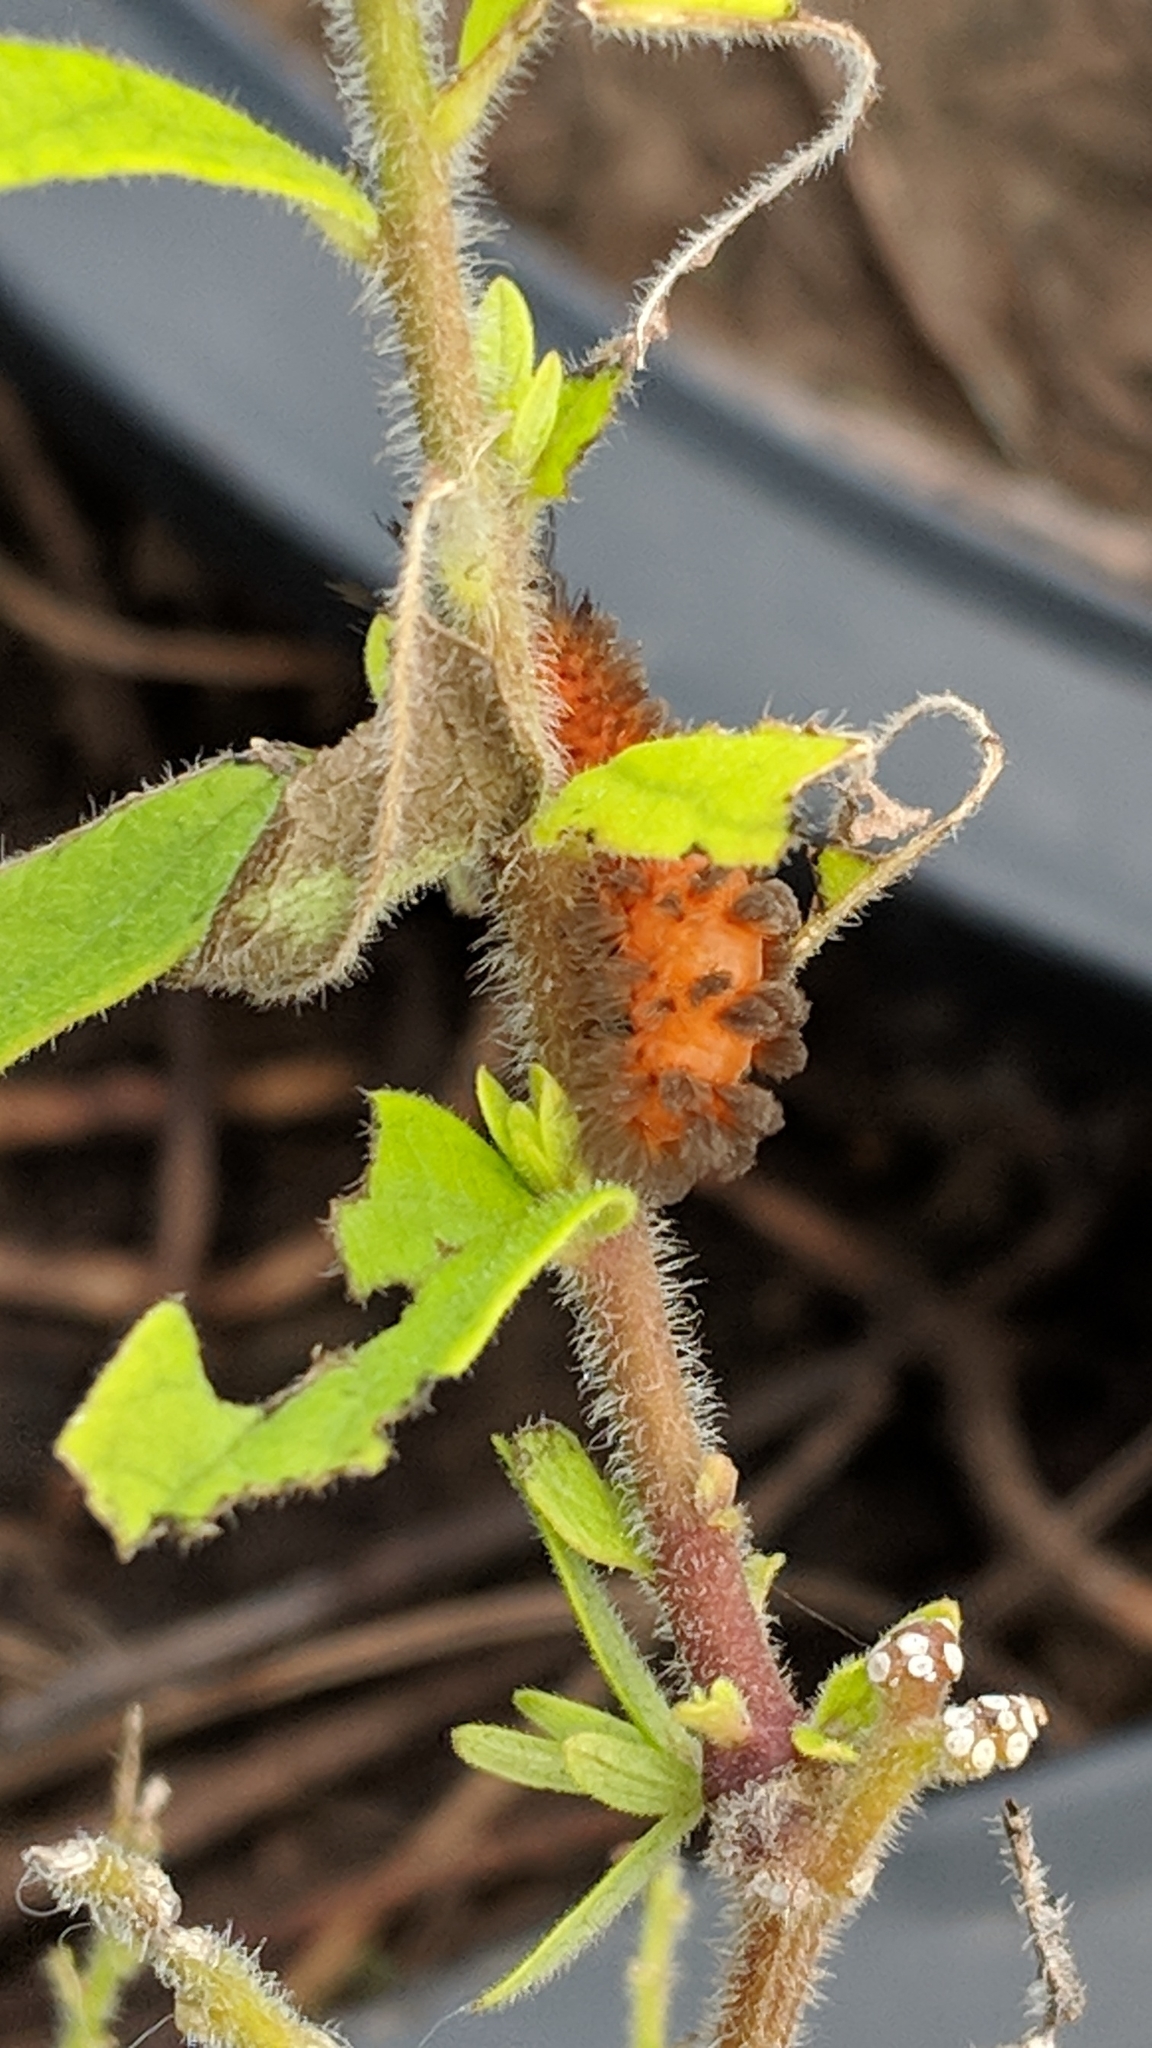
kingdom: Animalia
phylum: Arthropoda
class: Insecta
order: Lepidoptera
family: Erebidae
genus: Cycnia
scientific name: Cycnia collaris
